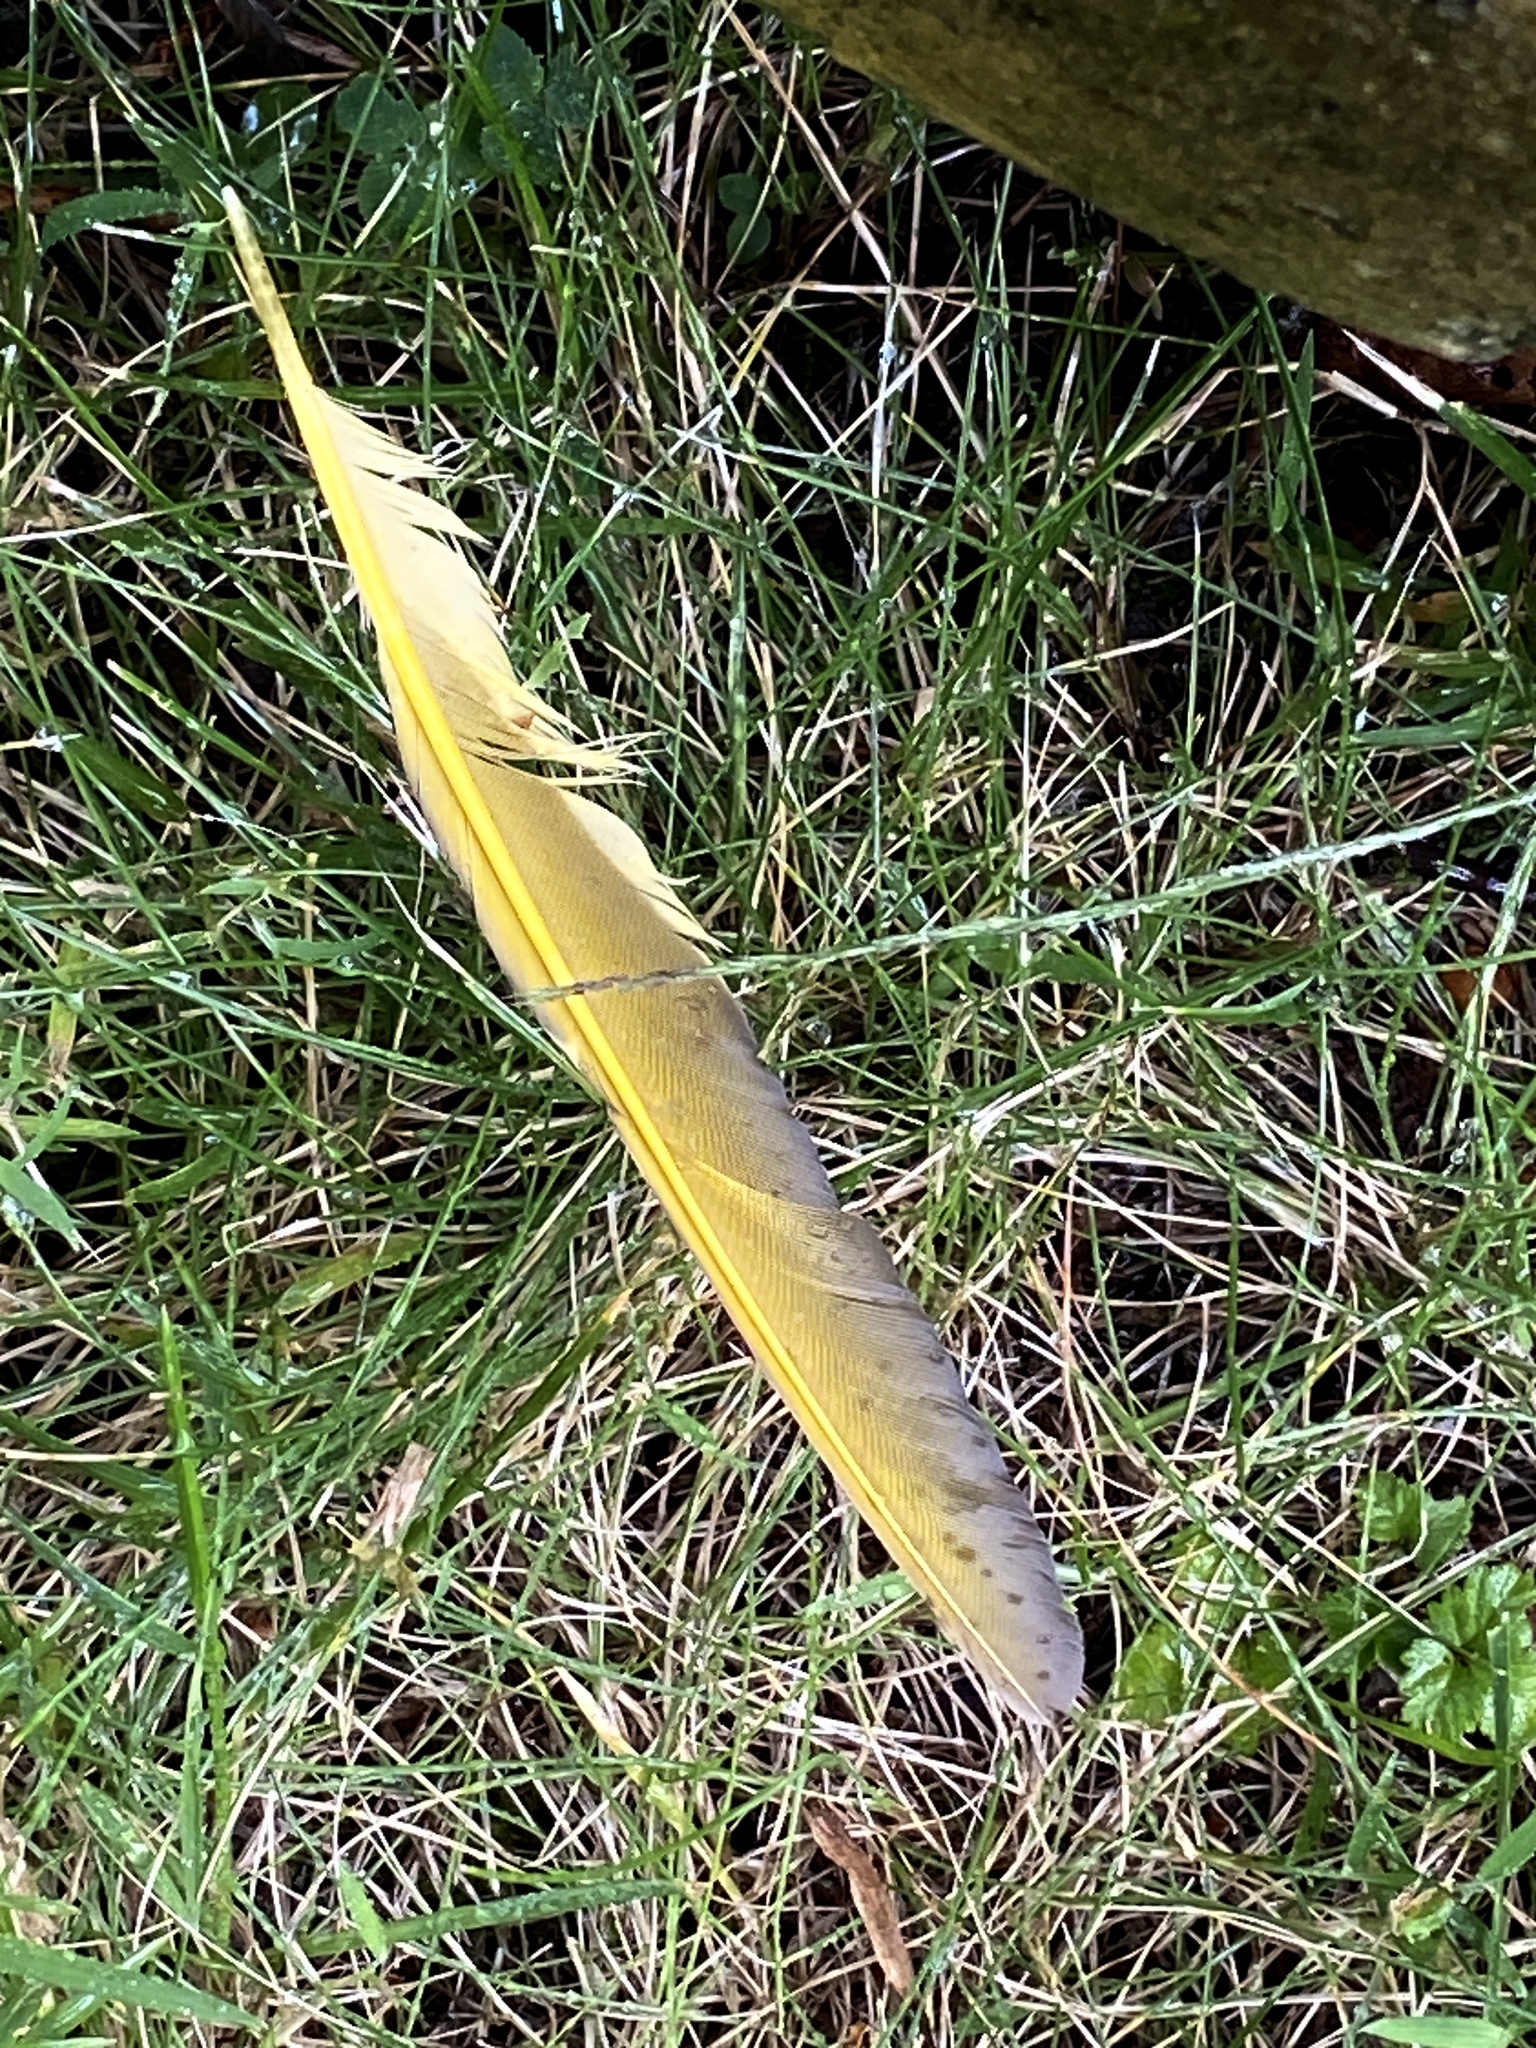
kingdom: Animalia
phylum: Chordata
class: Aves
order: Piciformes
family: Picidae
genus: Colaptes
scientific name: Colaptes auratus
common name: Northern flicker
